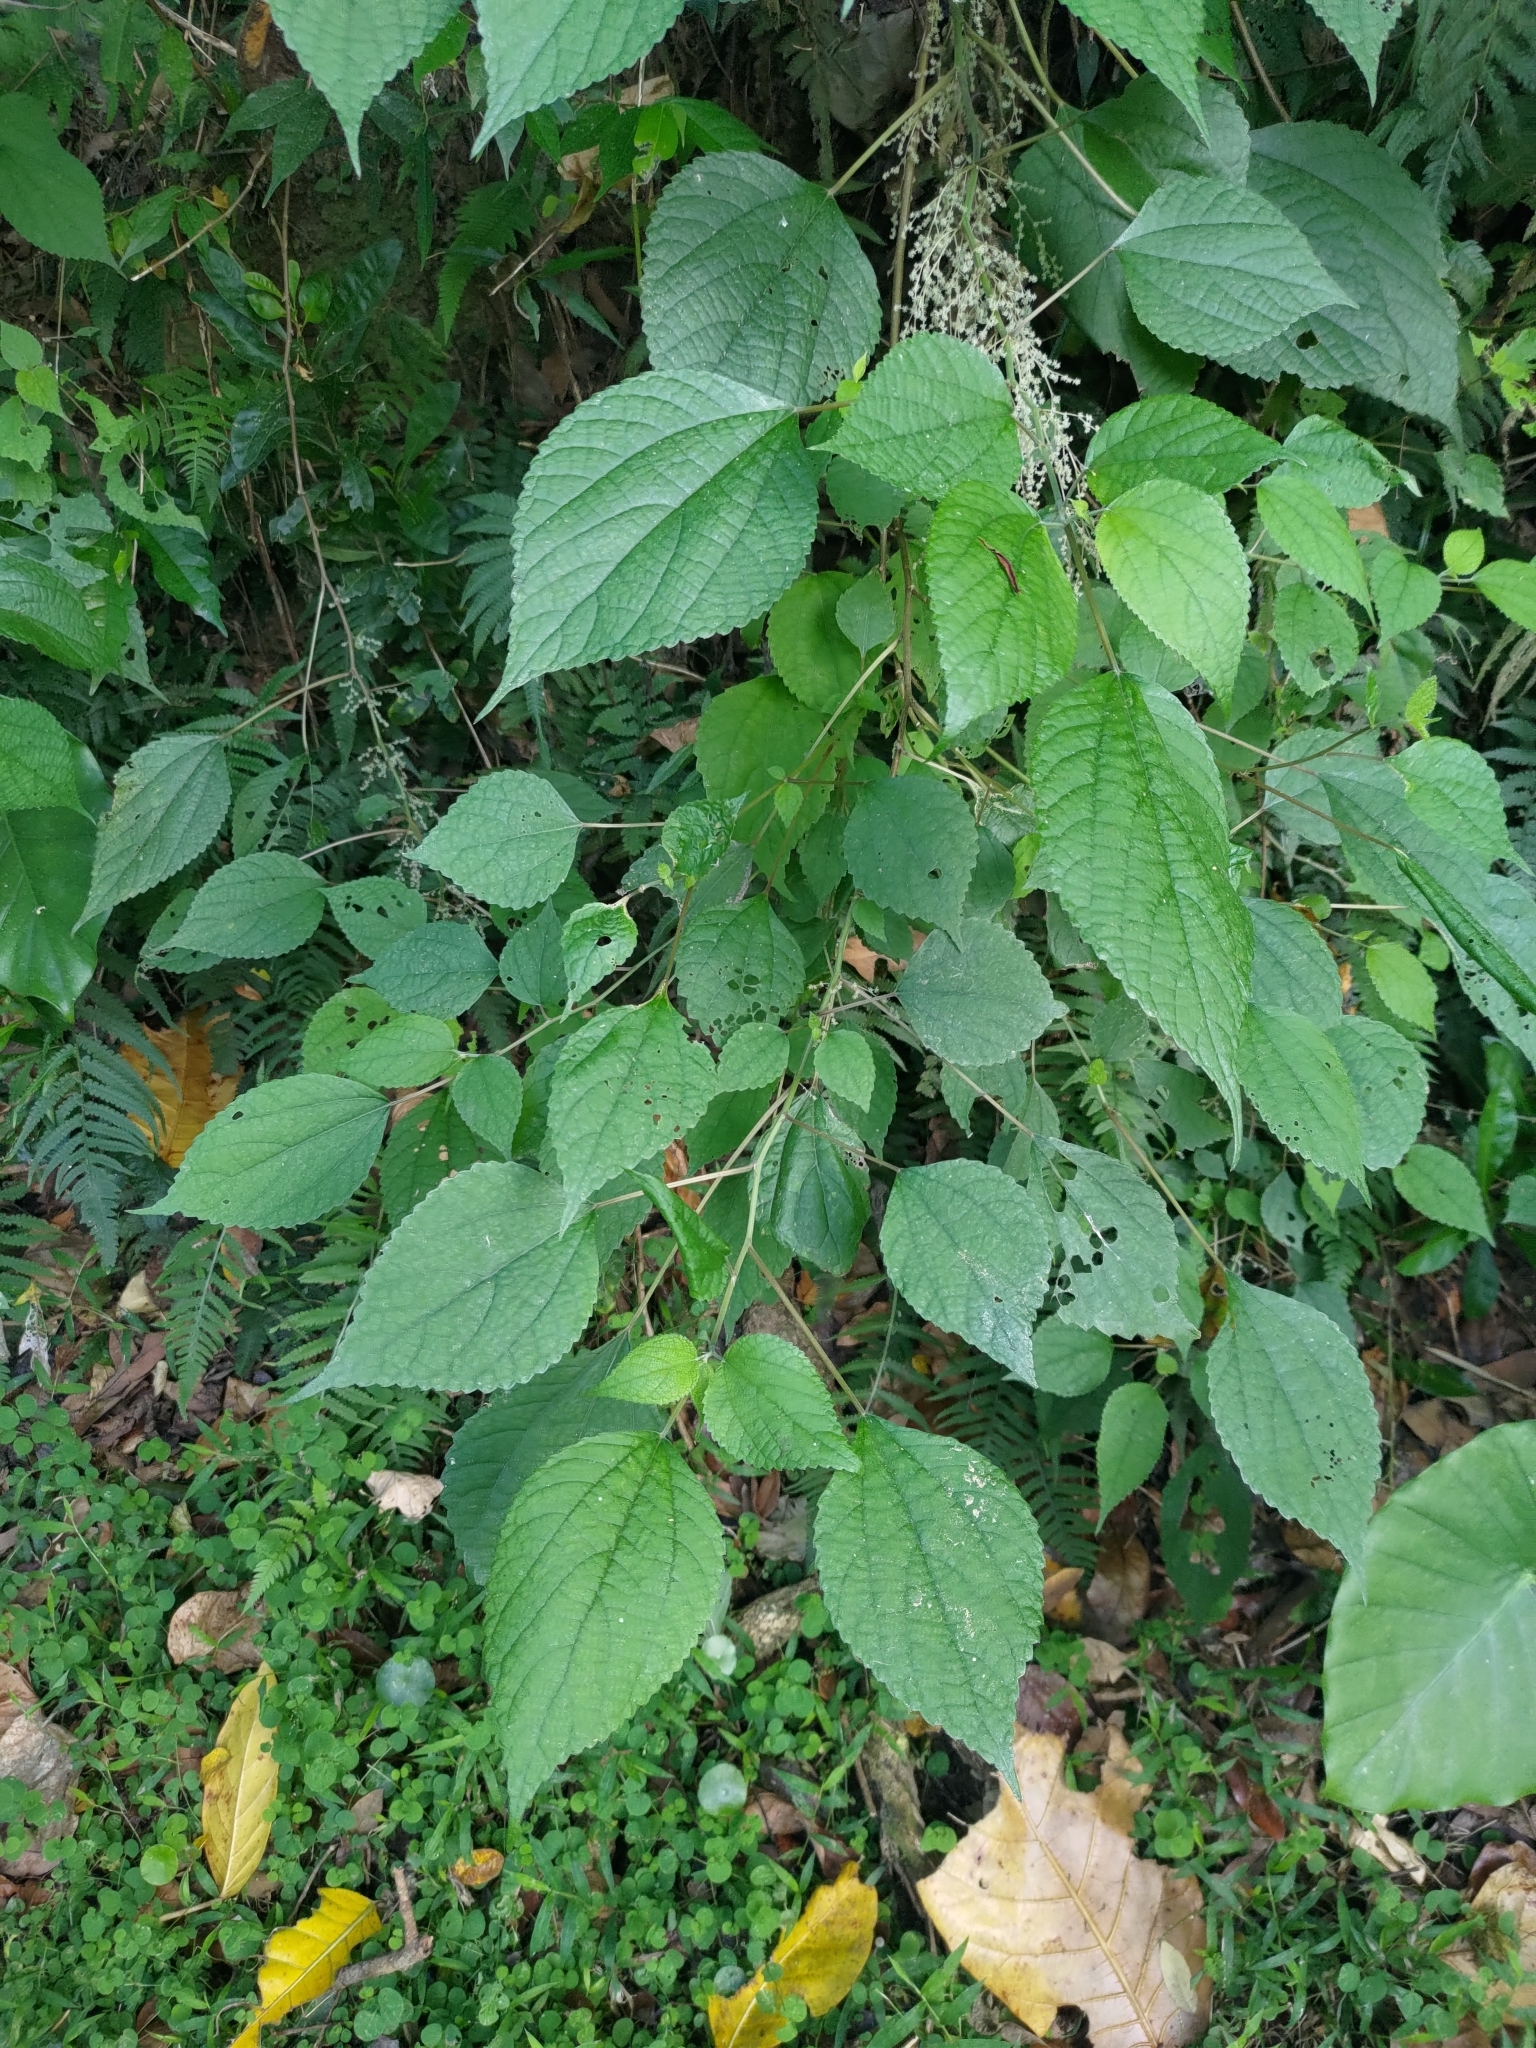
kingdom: Plantae
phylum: Tracheophyta
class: Magnoliopsida
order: Rosales
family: Urticaceae
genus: Boehmeria
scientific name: Boehmeria nivea
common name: Ramie chinese grass
